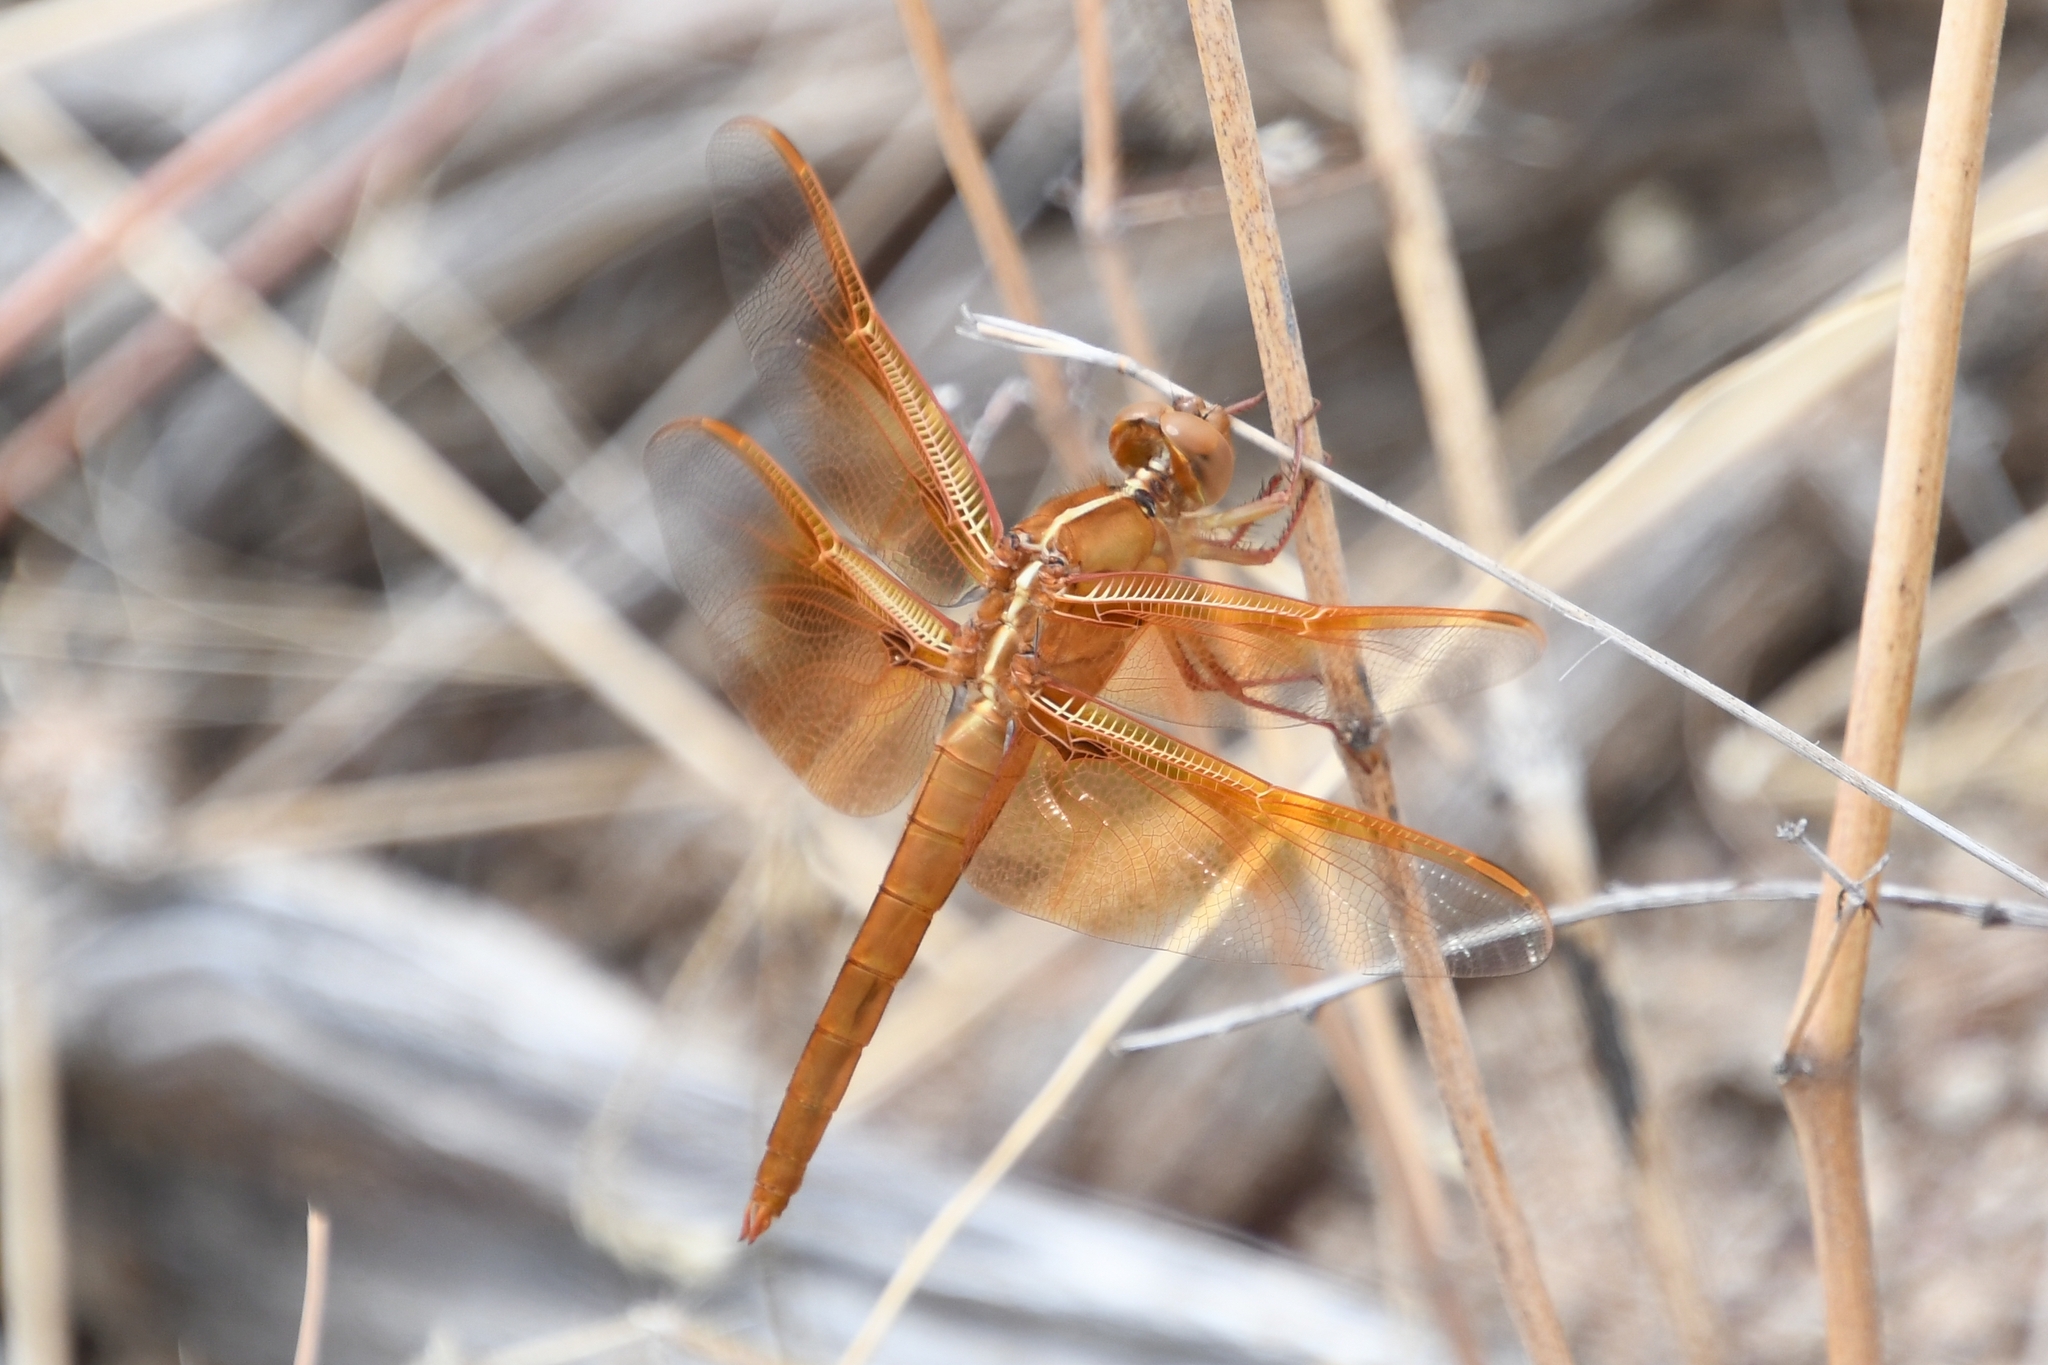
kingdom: Animalia
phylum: Arthropoda
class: Insecta
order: Odonata
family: Libellulidae
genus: Libellula
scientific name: Libellula saturata
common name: Flame skimmer
